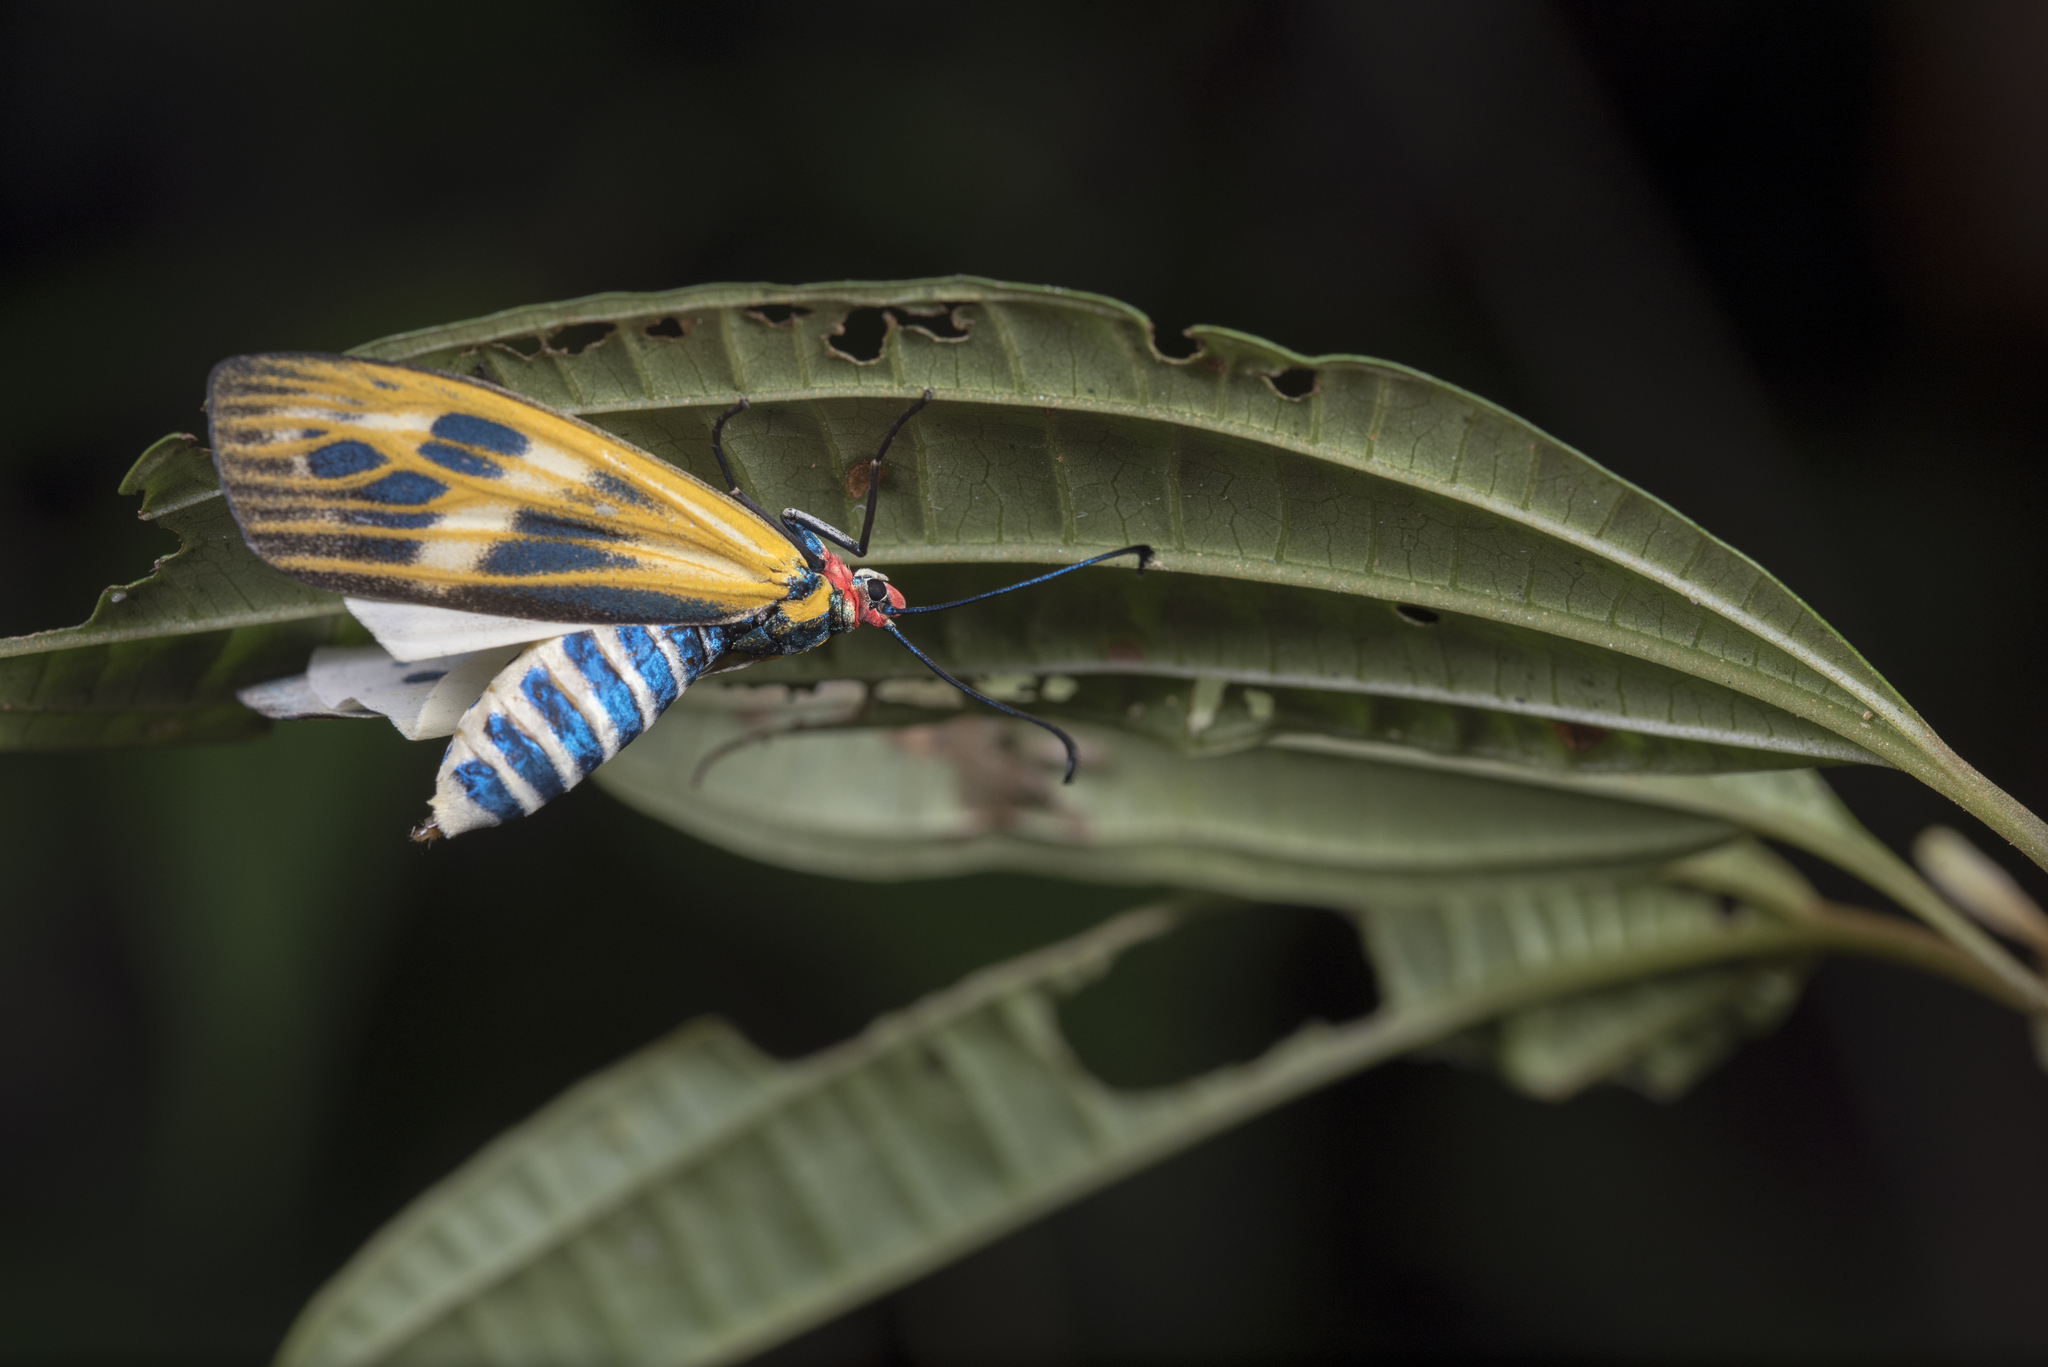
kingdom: Animalia
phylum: Arthropoda
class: Insecta
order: Lepidoptera
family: Zygaenidae
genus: Soritia
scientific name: Soritia strandi
